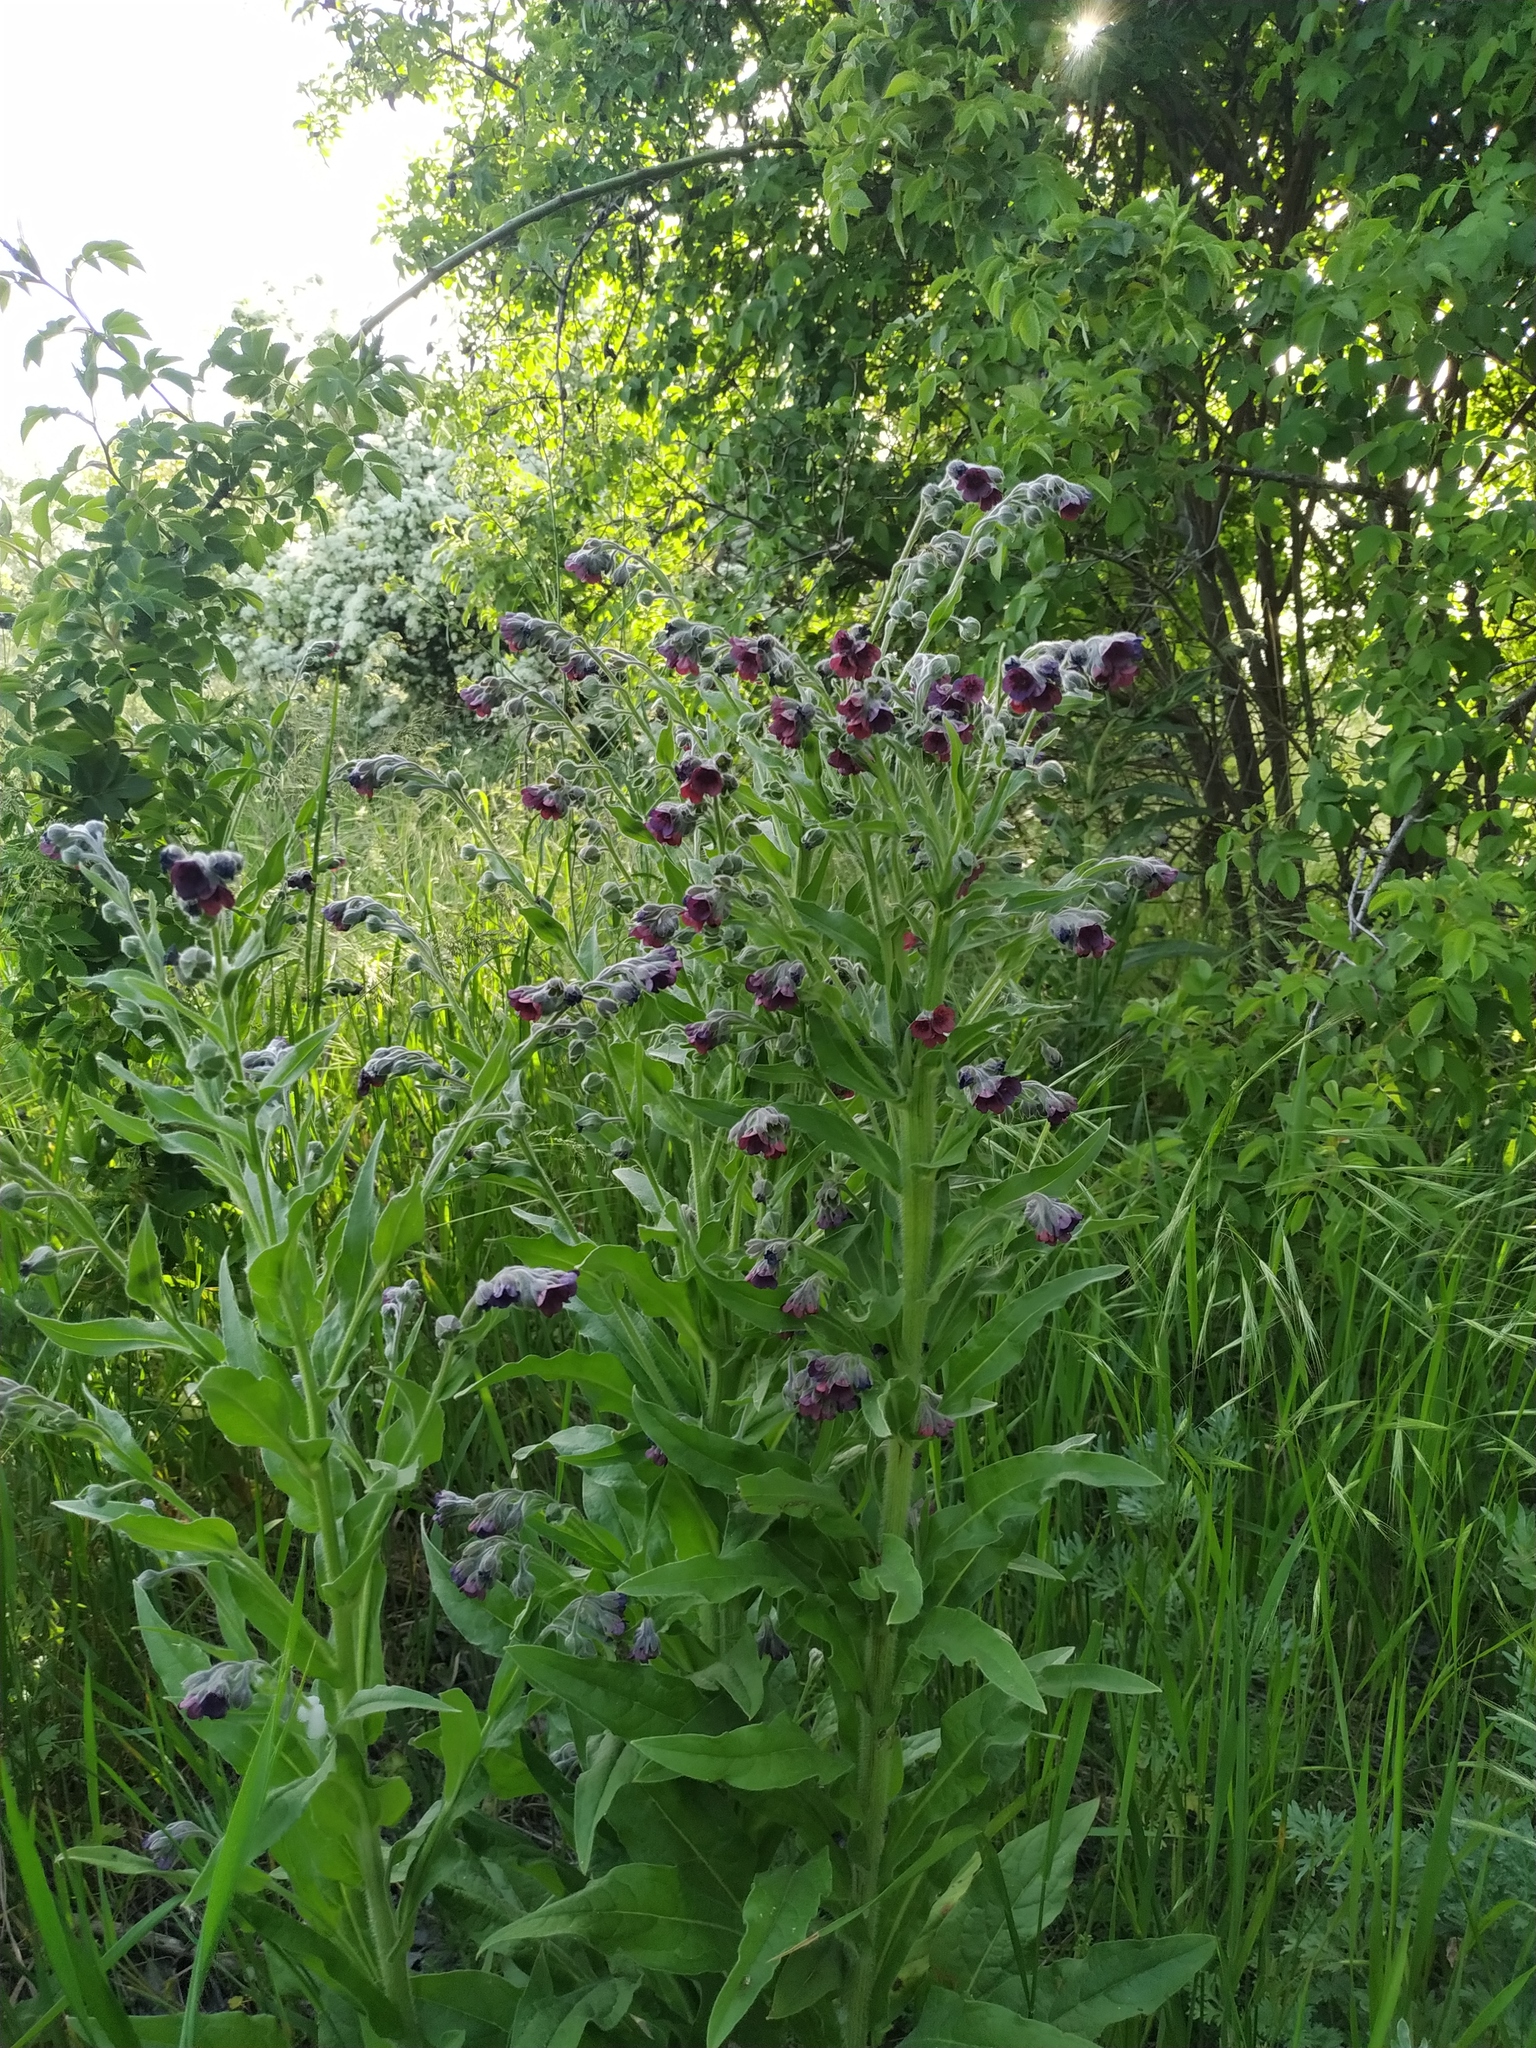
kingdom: Plantae
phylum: Tracheophyta
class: Magnoliopsida
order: Boraginales
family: Boraginaceae
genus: Cynoglossum
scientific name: Cynoglossum officinale
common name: Hound's-tongue
